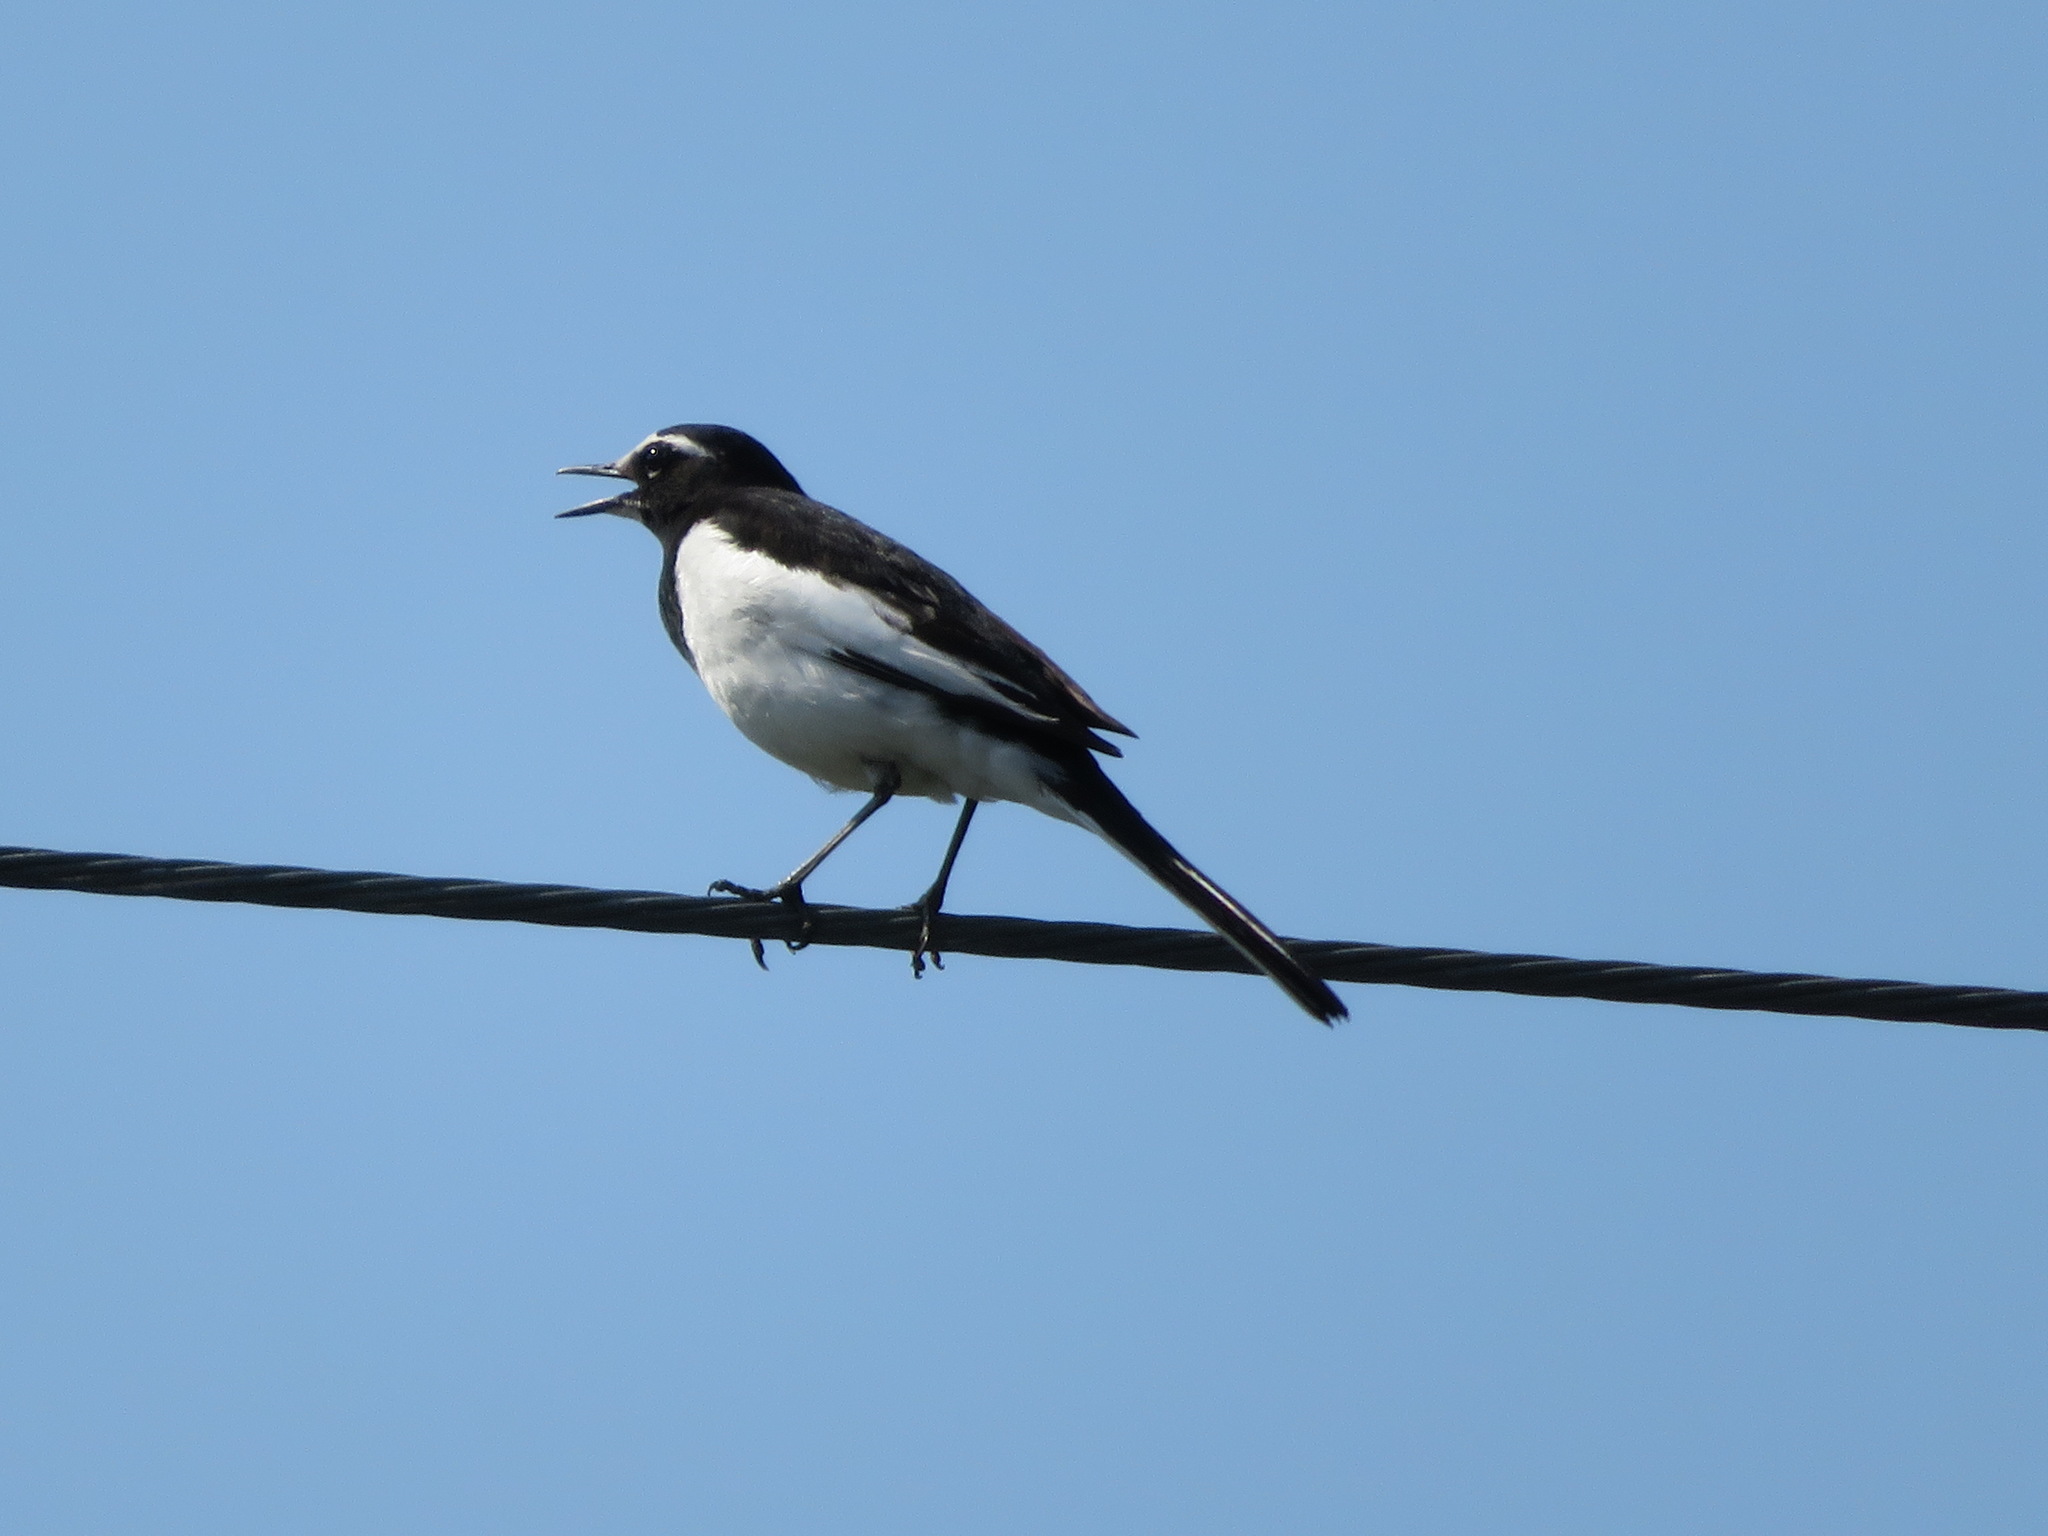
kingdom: Animalia
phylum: Chordata
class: Aves
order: Passeriformes
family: Motacillidae
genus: Motacilla
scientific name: Motacilla grandis
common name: Japanese wagtail
